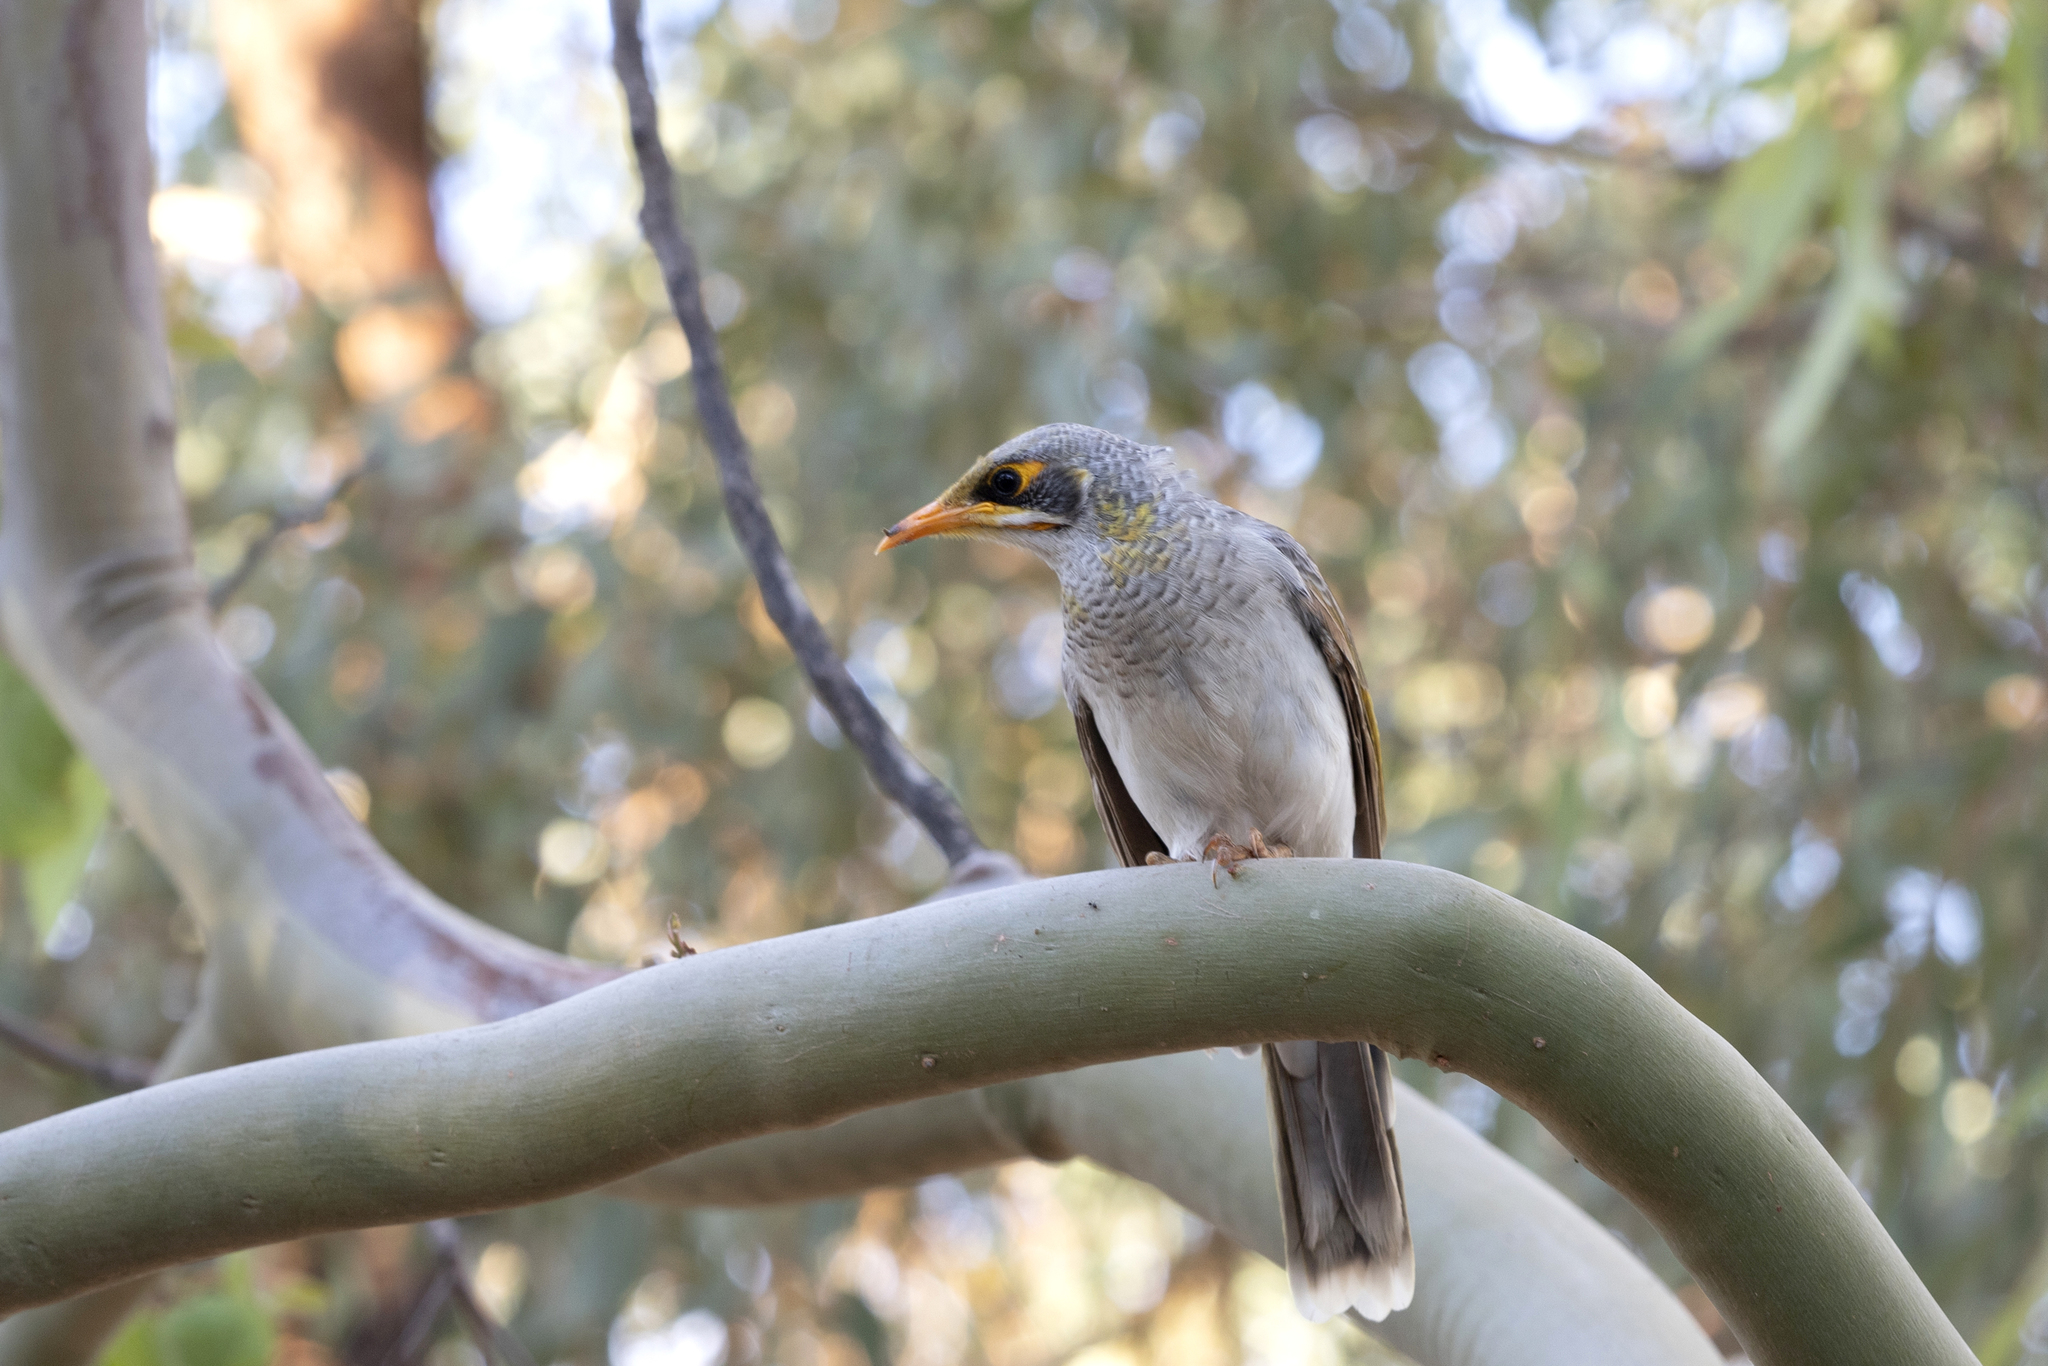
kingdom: Animalia
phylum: Chordata
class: Aves
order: Passeriformes
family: Meliphagidae
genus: Manorina
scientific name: Manorina flavigula
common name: Yellow-throated miner
